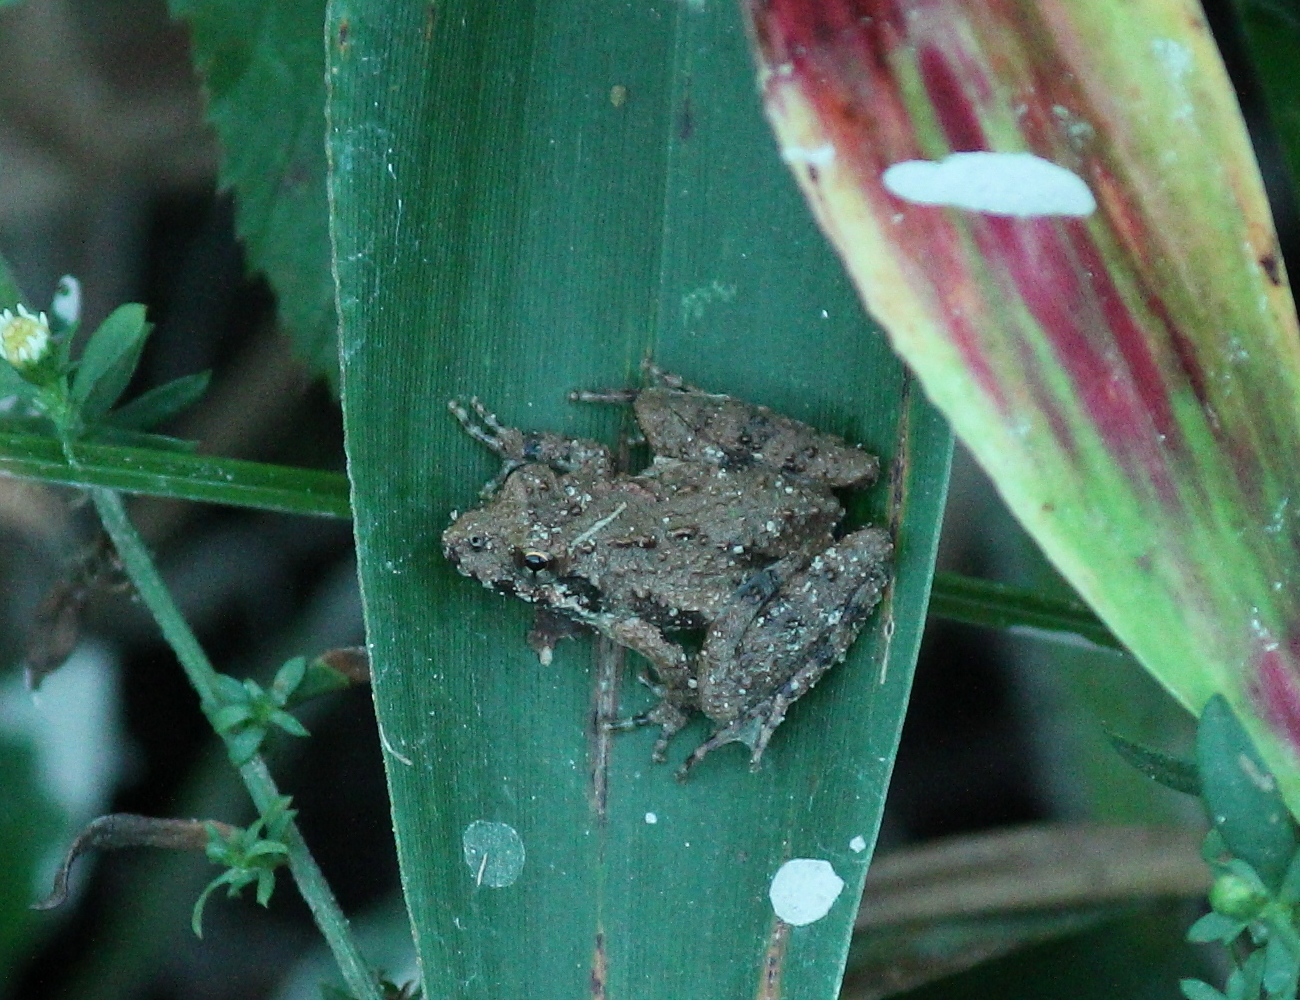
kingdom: Animalia
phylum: Chordata
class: Amphibia
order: Anura
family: Hylidae
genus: Acris
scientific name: Acris blanchardi
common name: Blanchard's cricket frog
